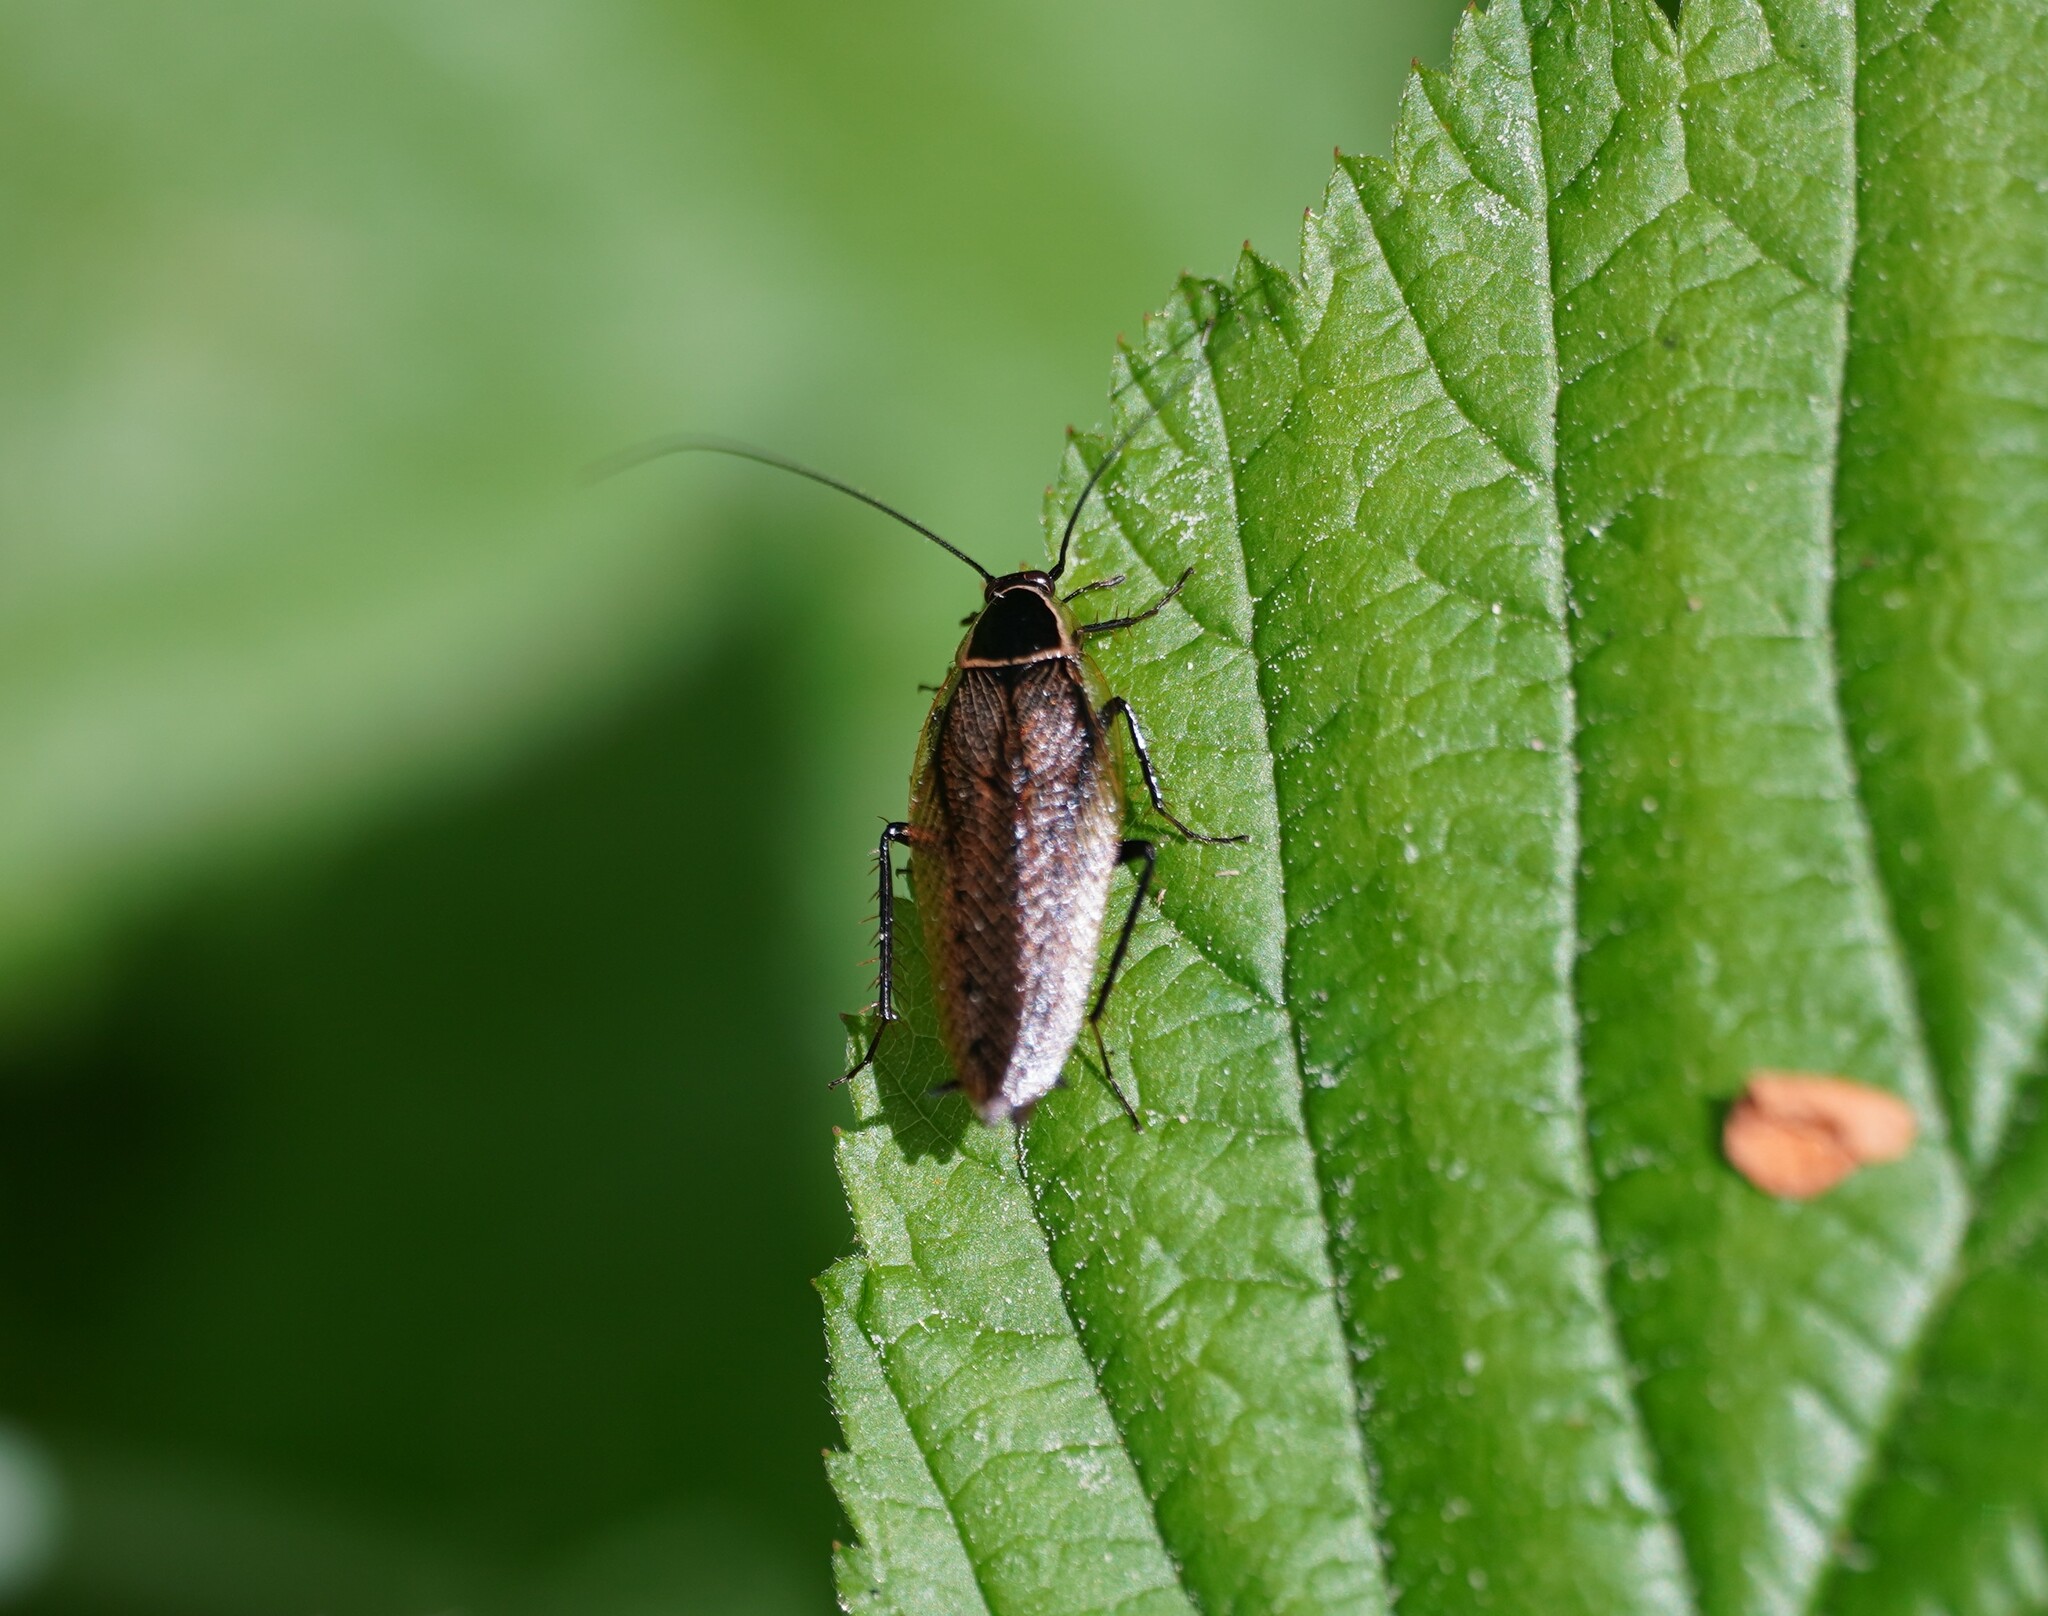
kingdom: Animalia
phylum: Arthropoda
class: Insecta
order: Blattodea
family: Ectobiidae
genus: Ectobius
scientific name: Ectobius sylvestris
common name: Forest cockroach
